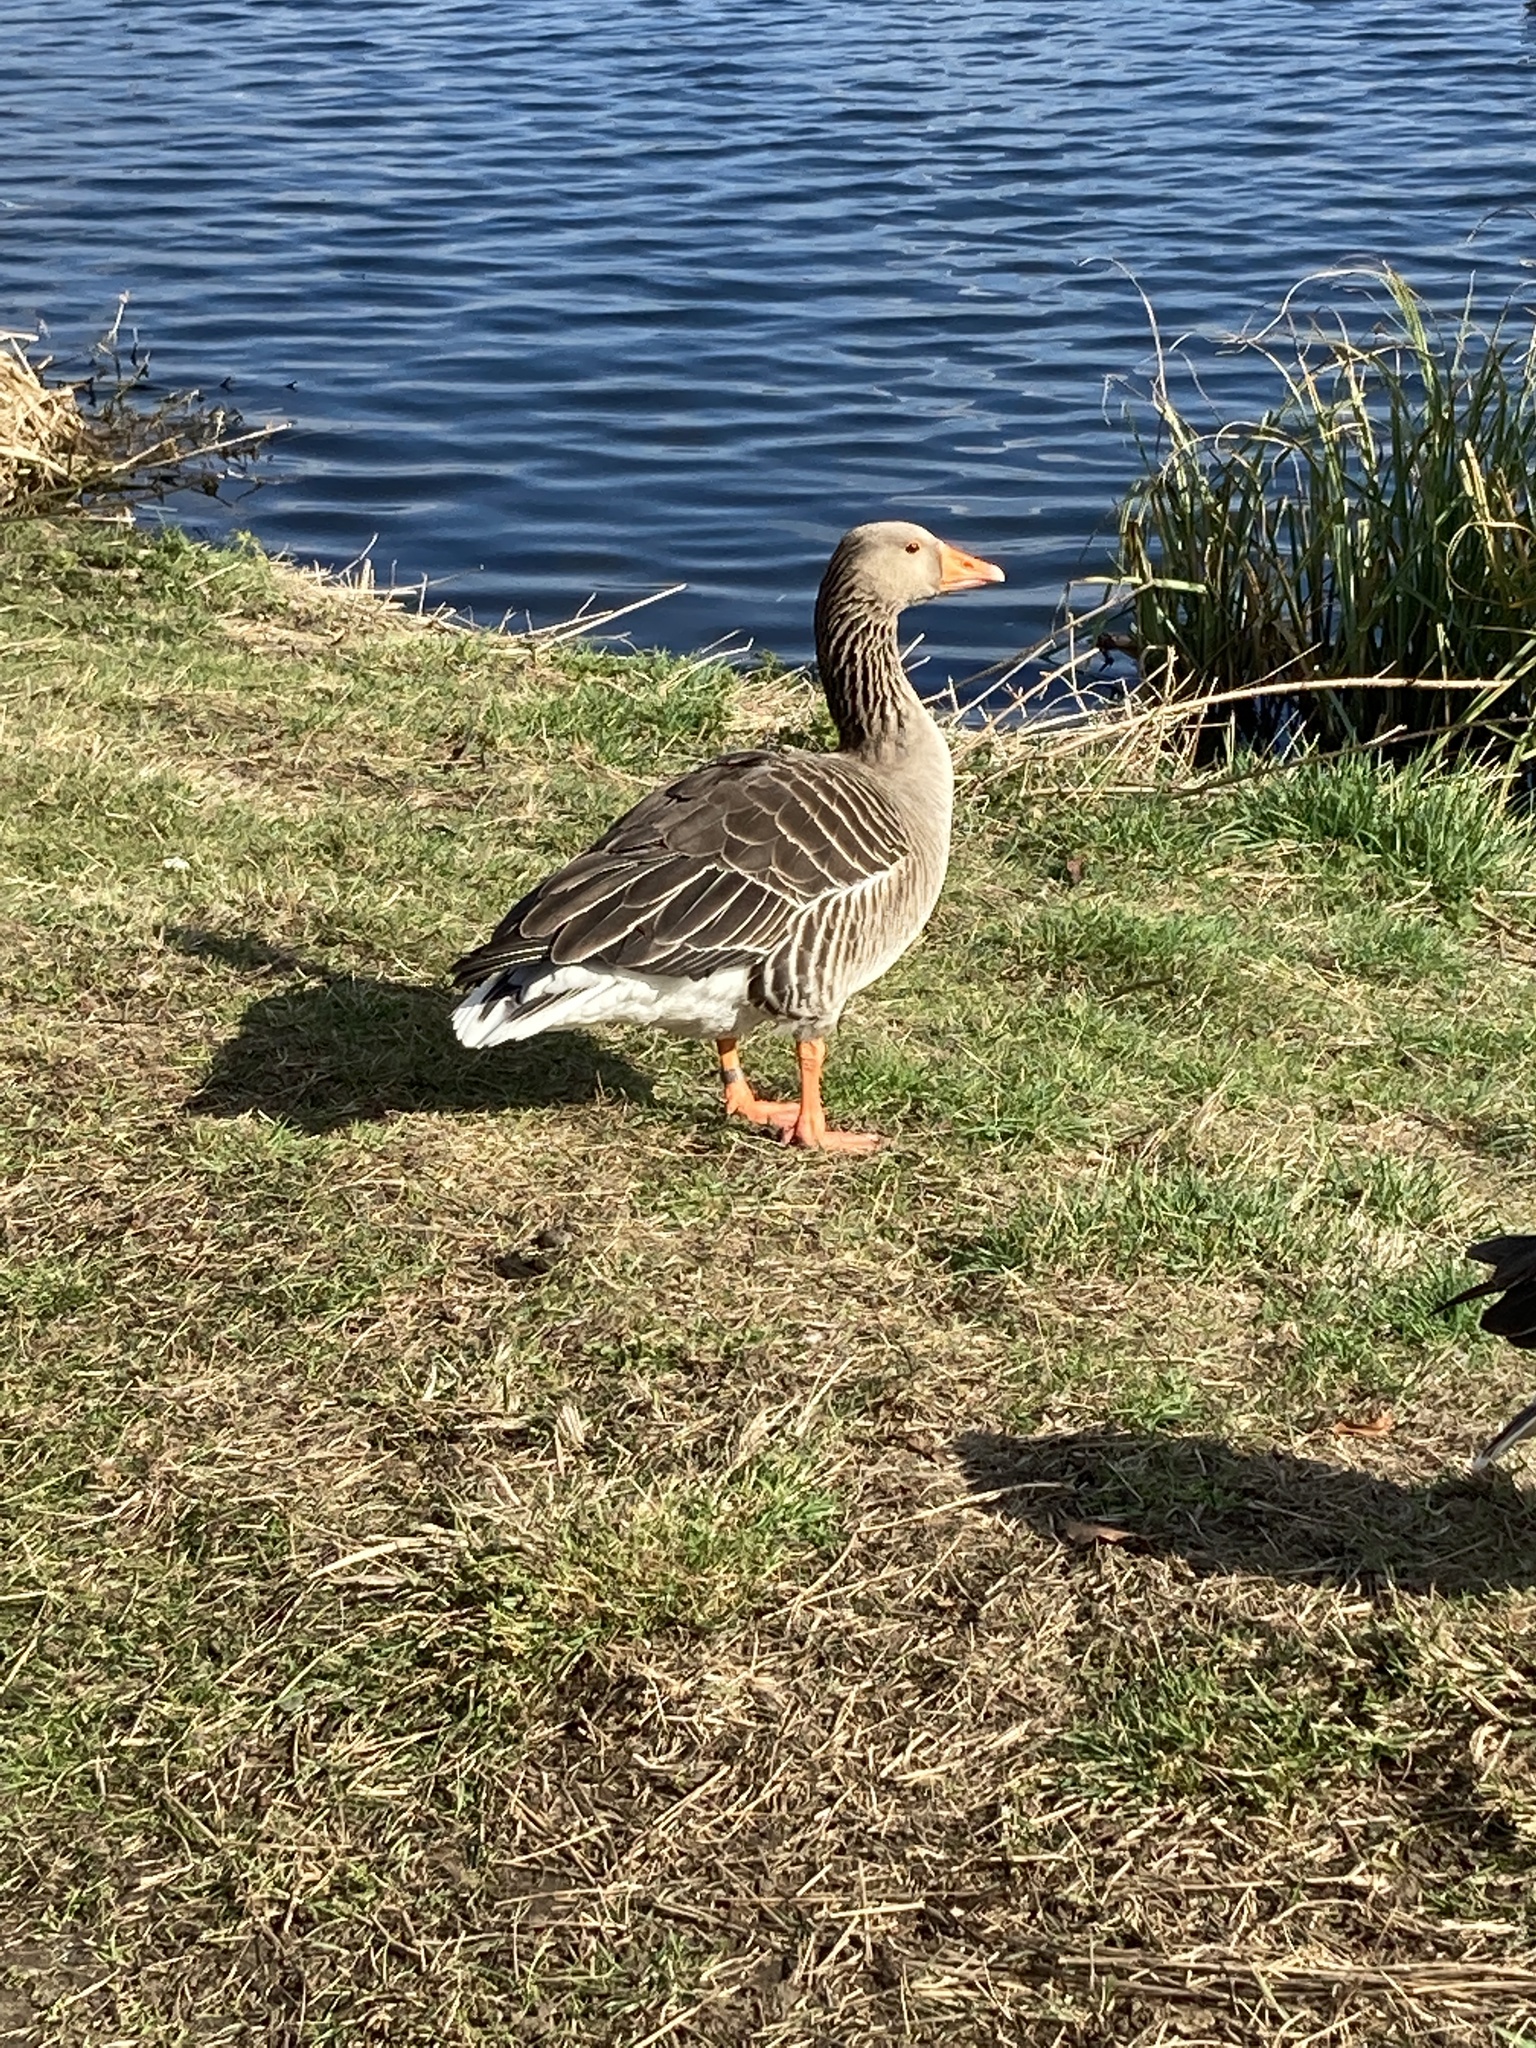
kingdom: Animalia
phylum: Chordata
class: Aves
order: Anseriformes
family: Anatidae
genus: Anser
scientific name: Anser anser
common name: Greylag goose
